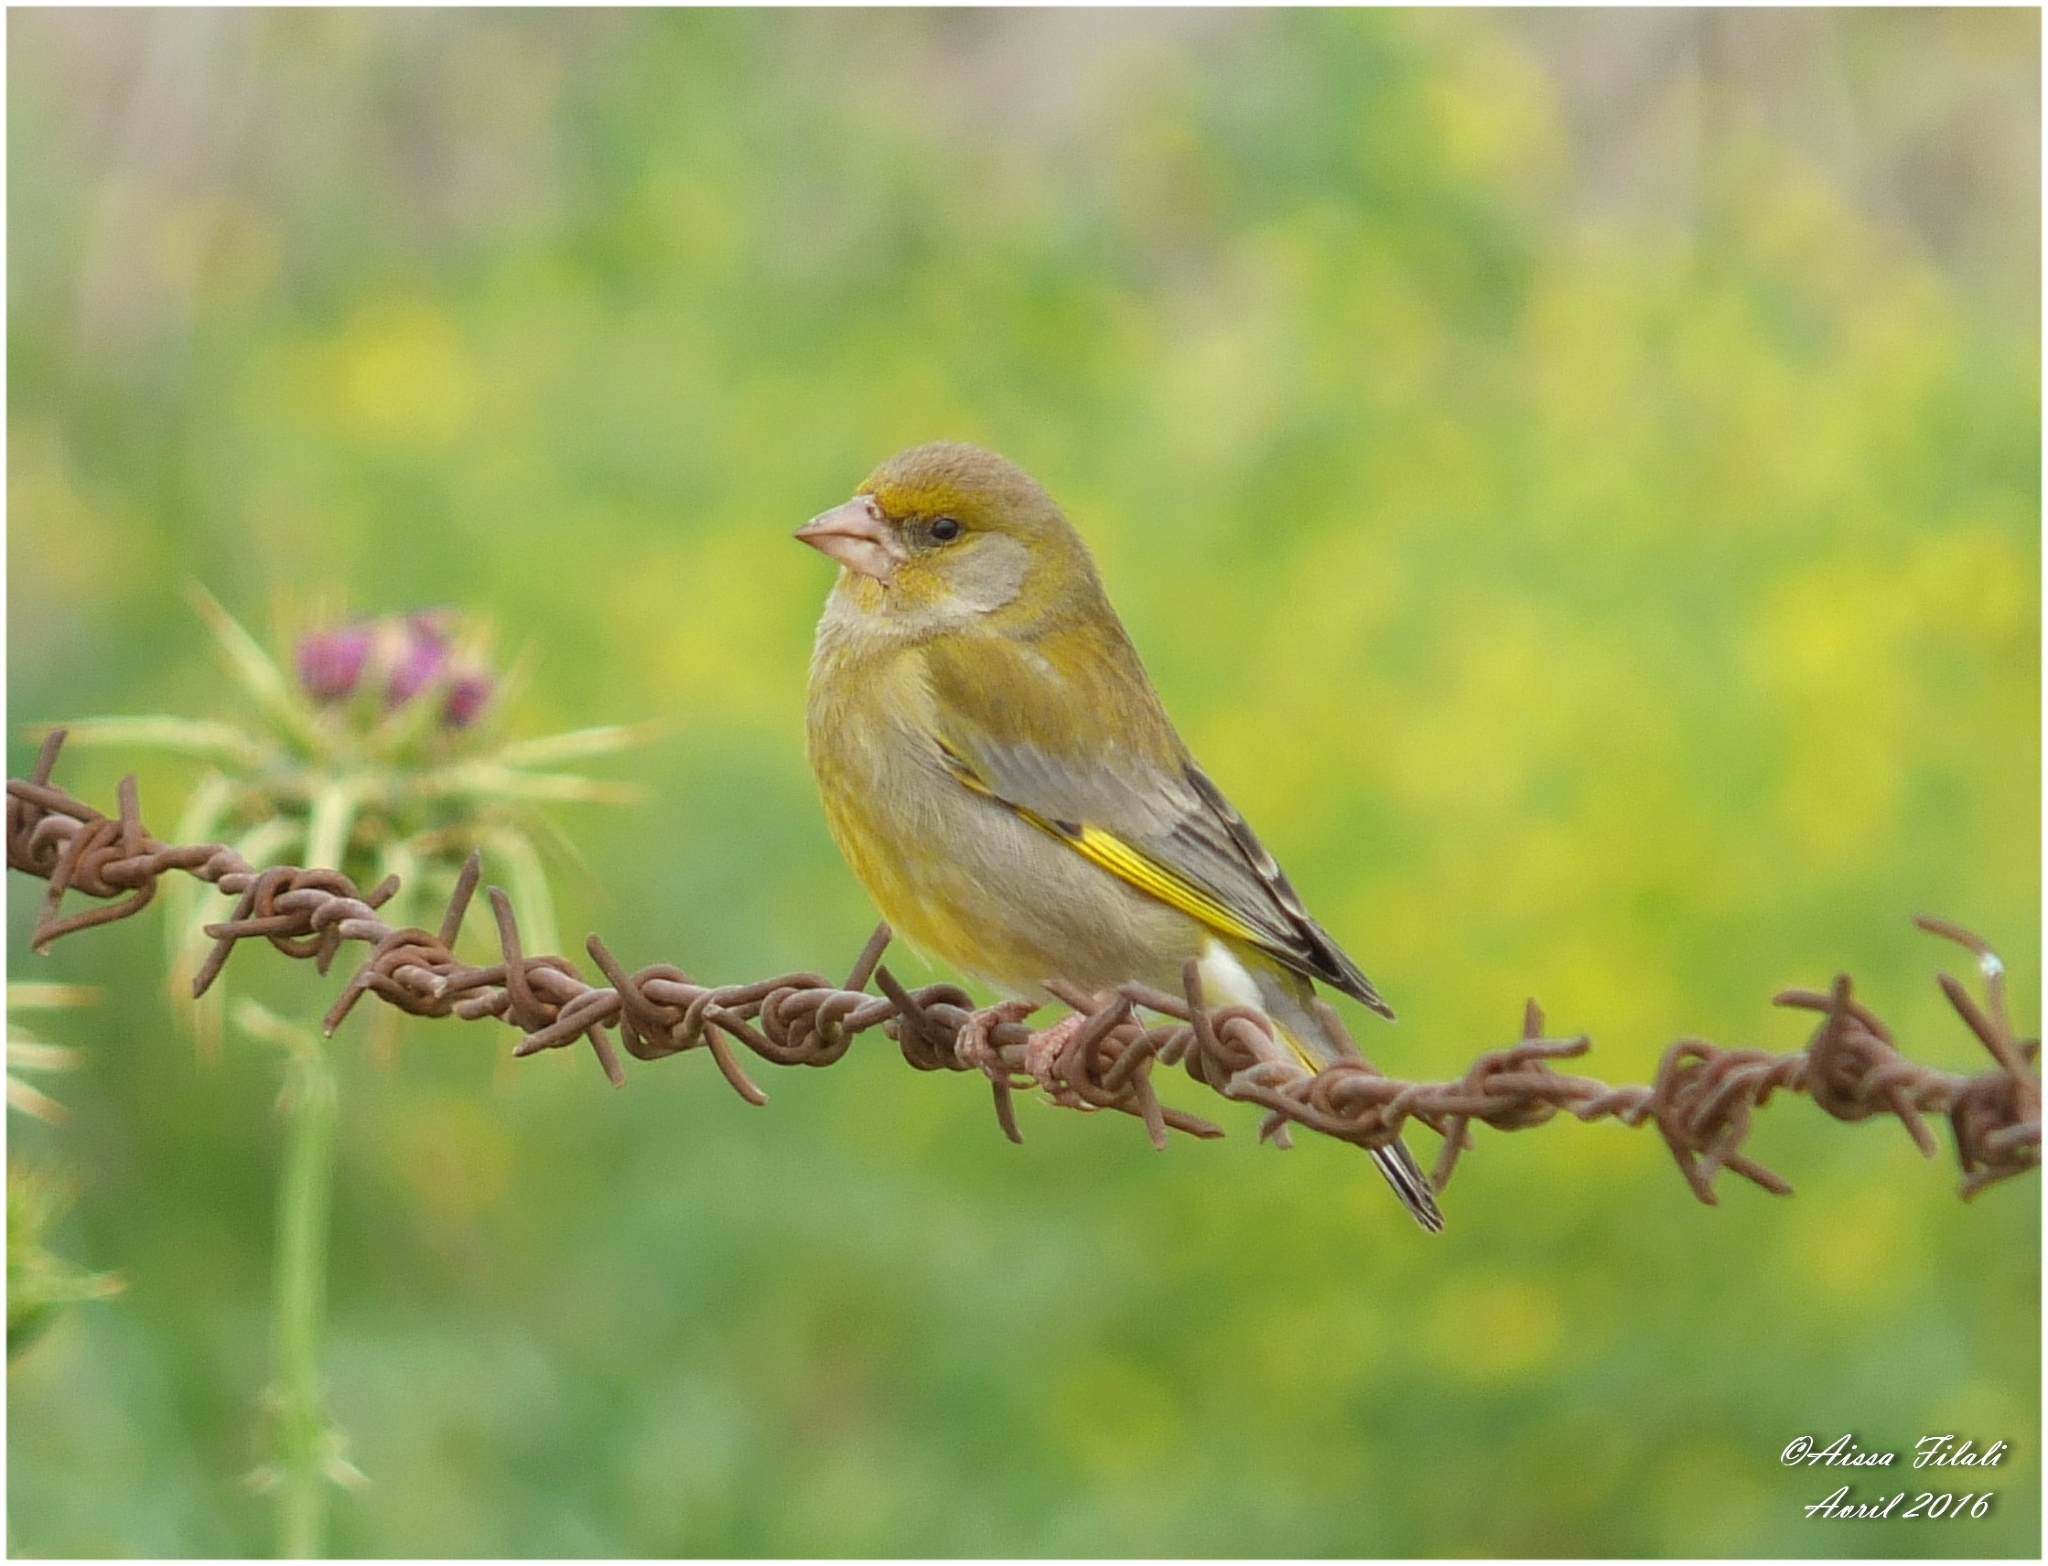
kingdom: Plantae
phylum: Tracheophyta
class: Liliopsida
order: Poales
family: Poaceae
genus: Chloris
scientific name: Chloris chloris
